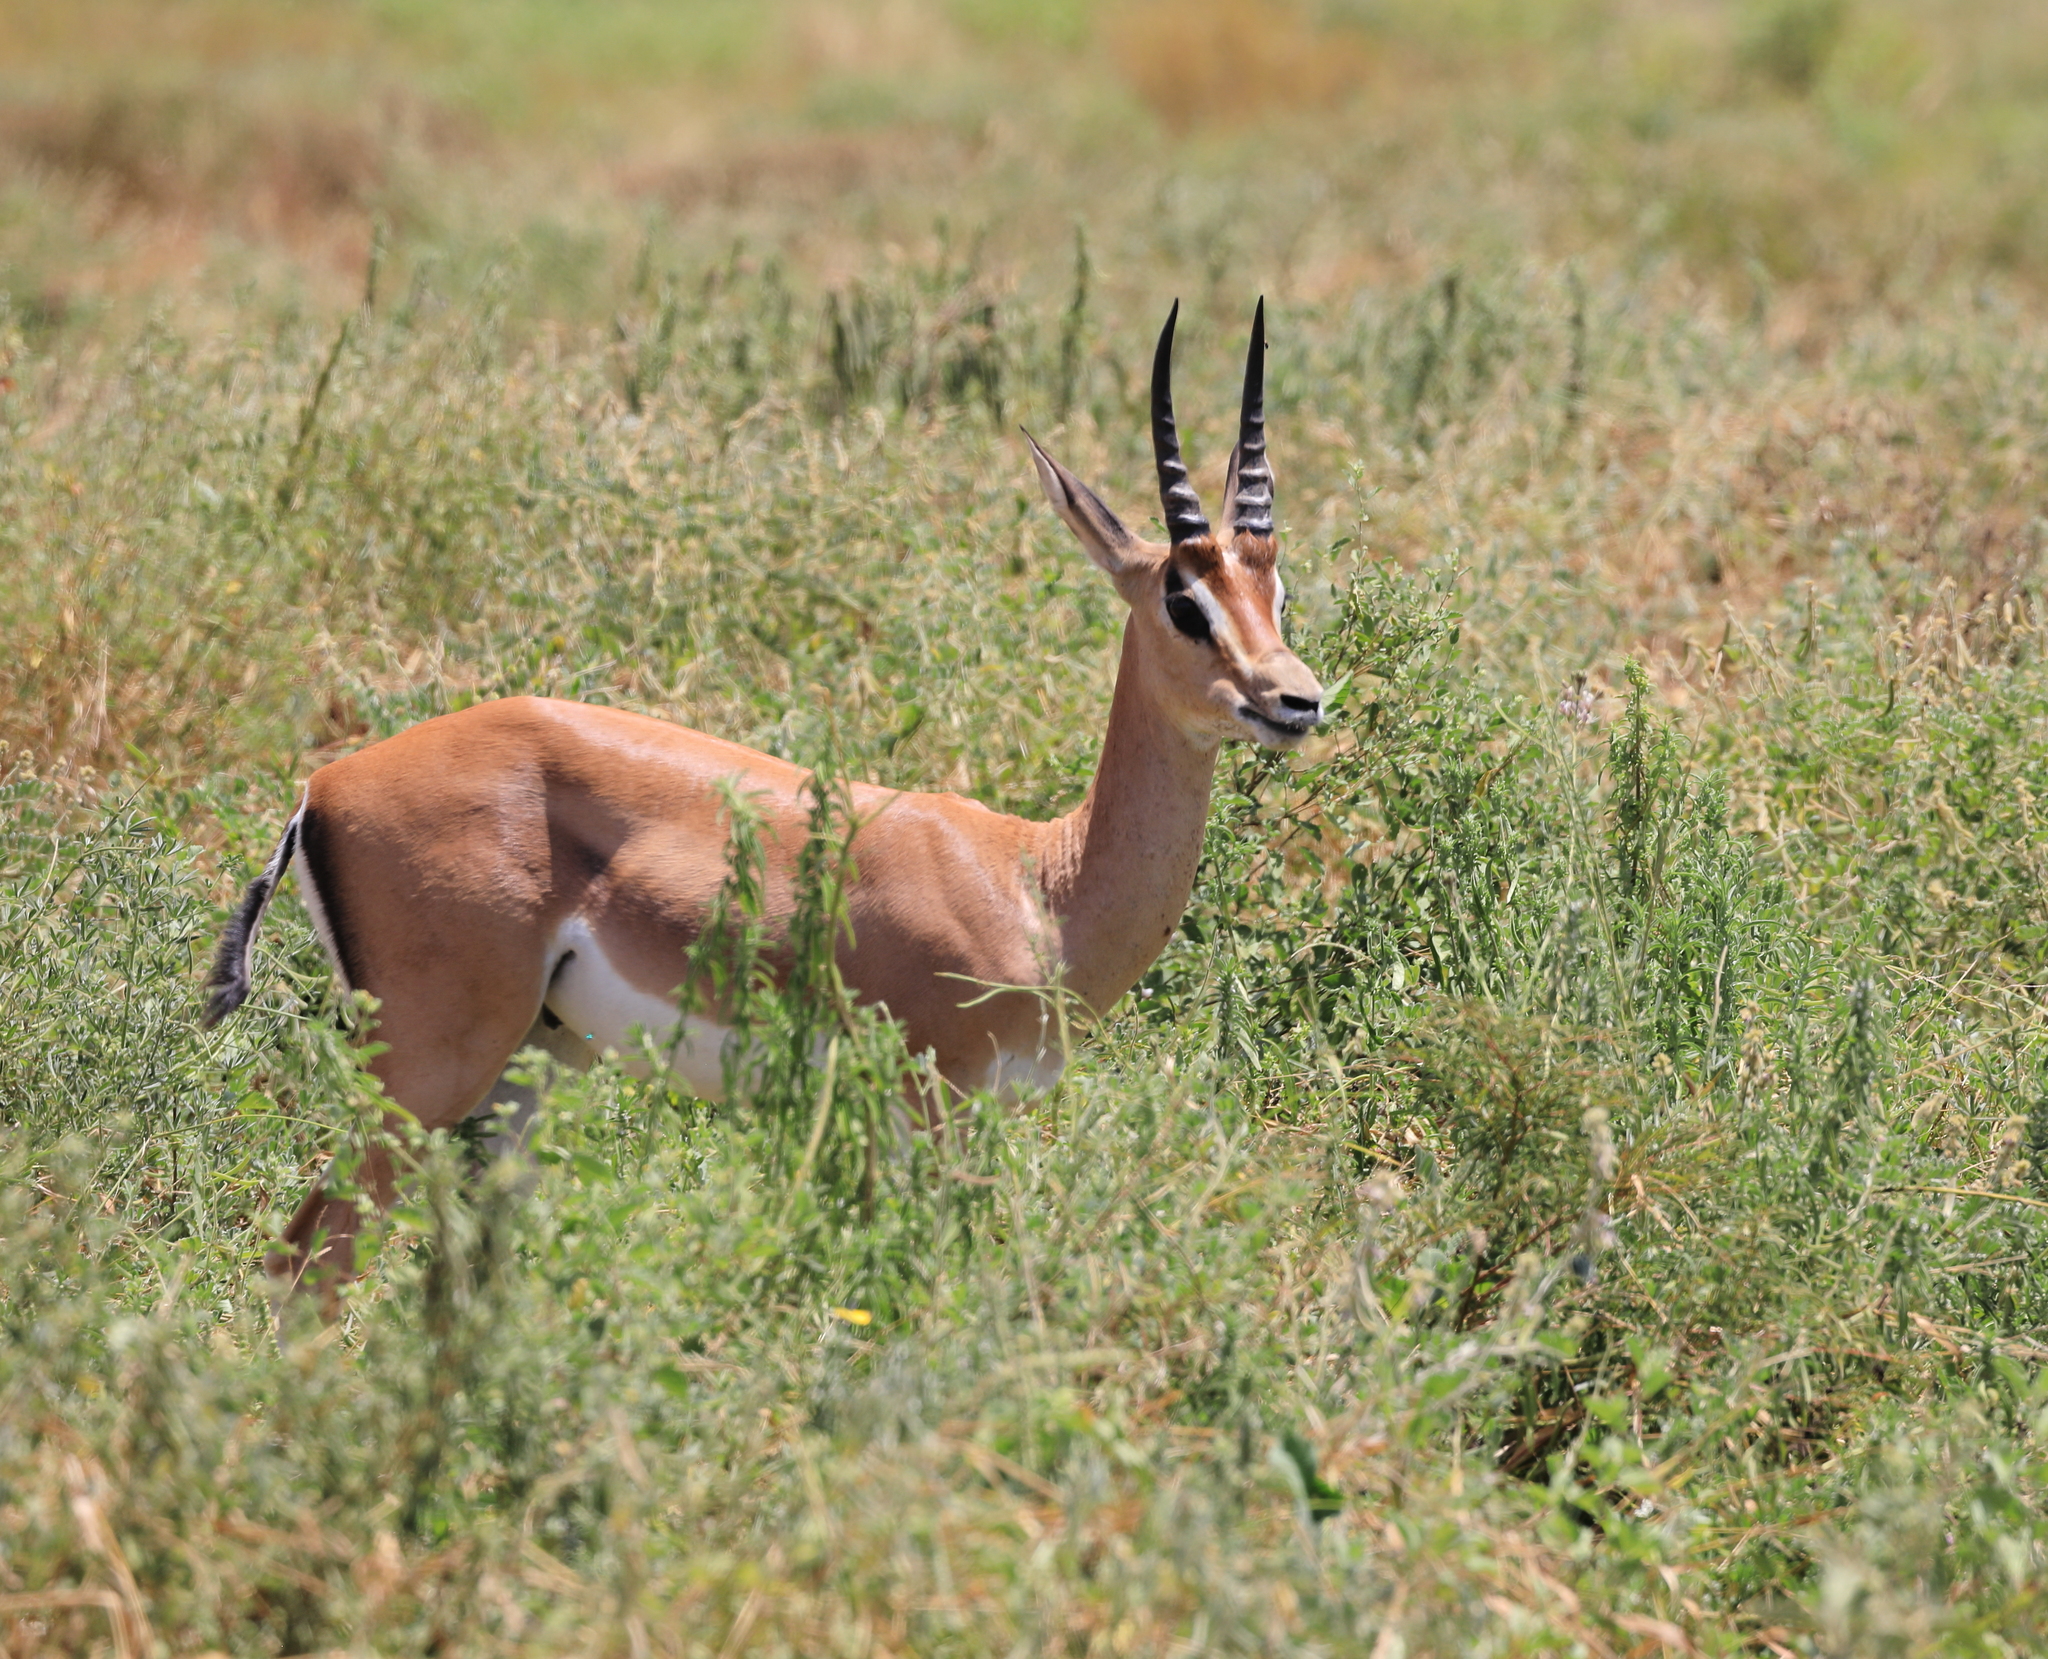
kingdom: Animalia
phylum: Chordata
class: Mammalia
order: Artiodactyla
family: Bovidae
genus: Nanger
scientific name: Nanger granti
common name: Grant's gazelle
